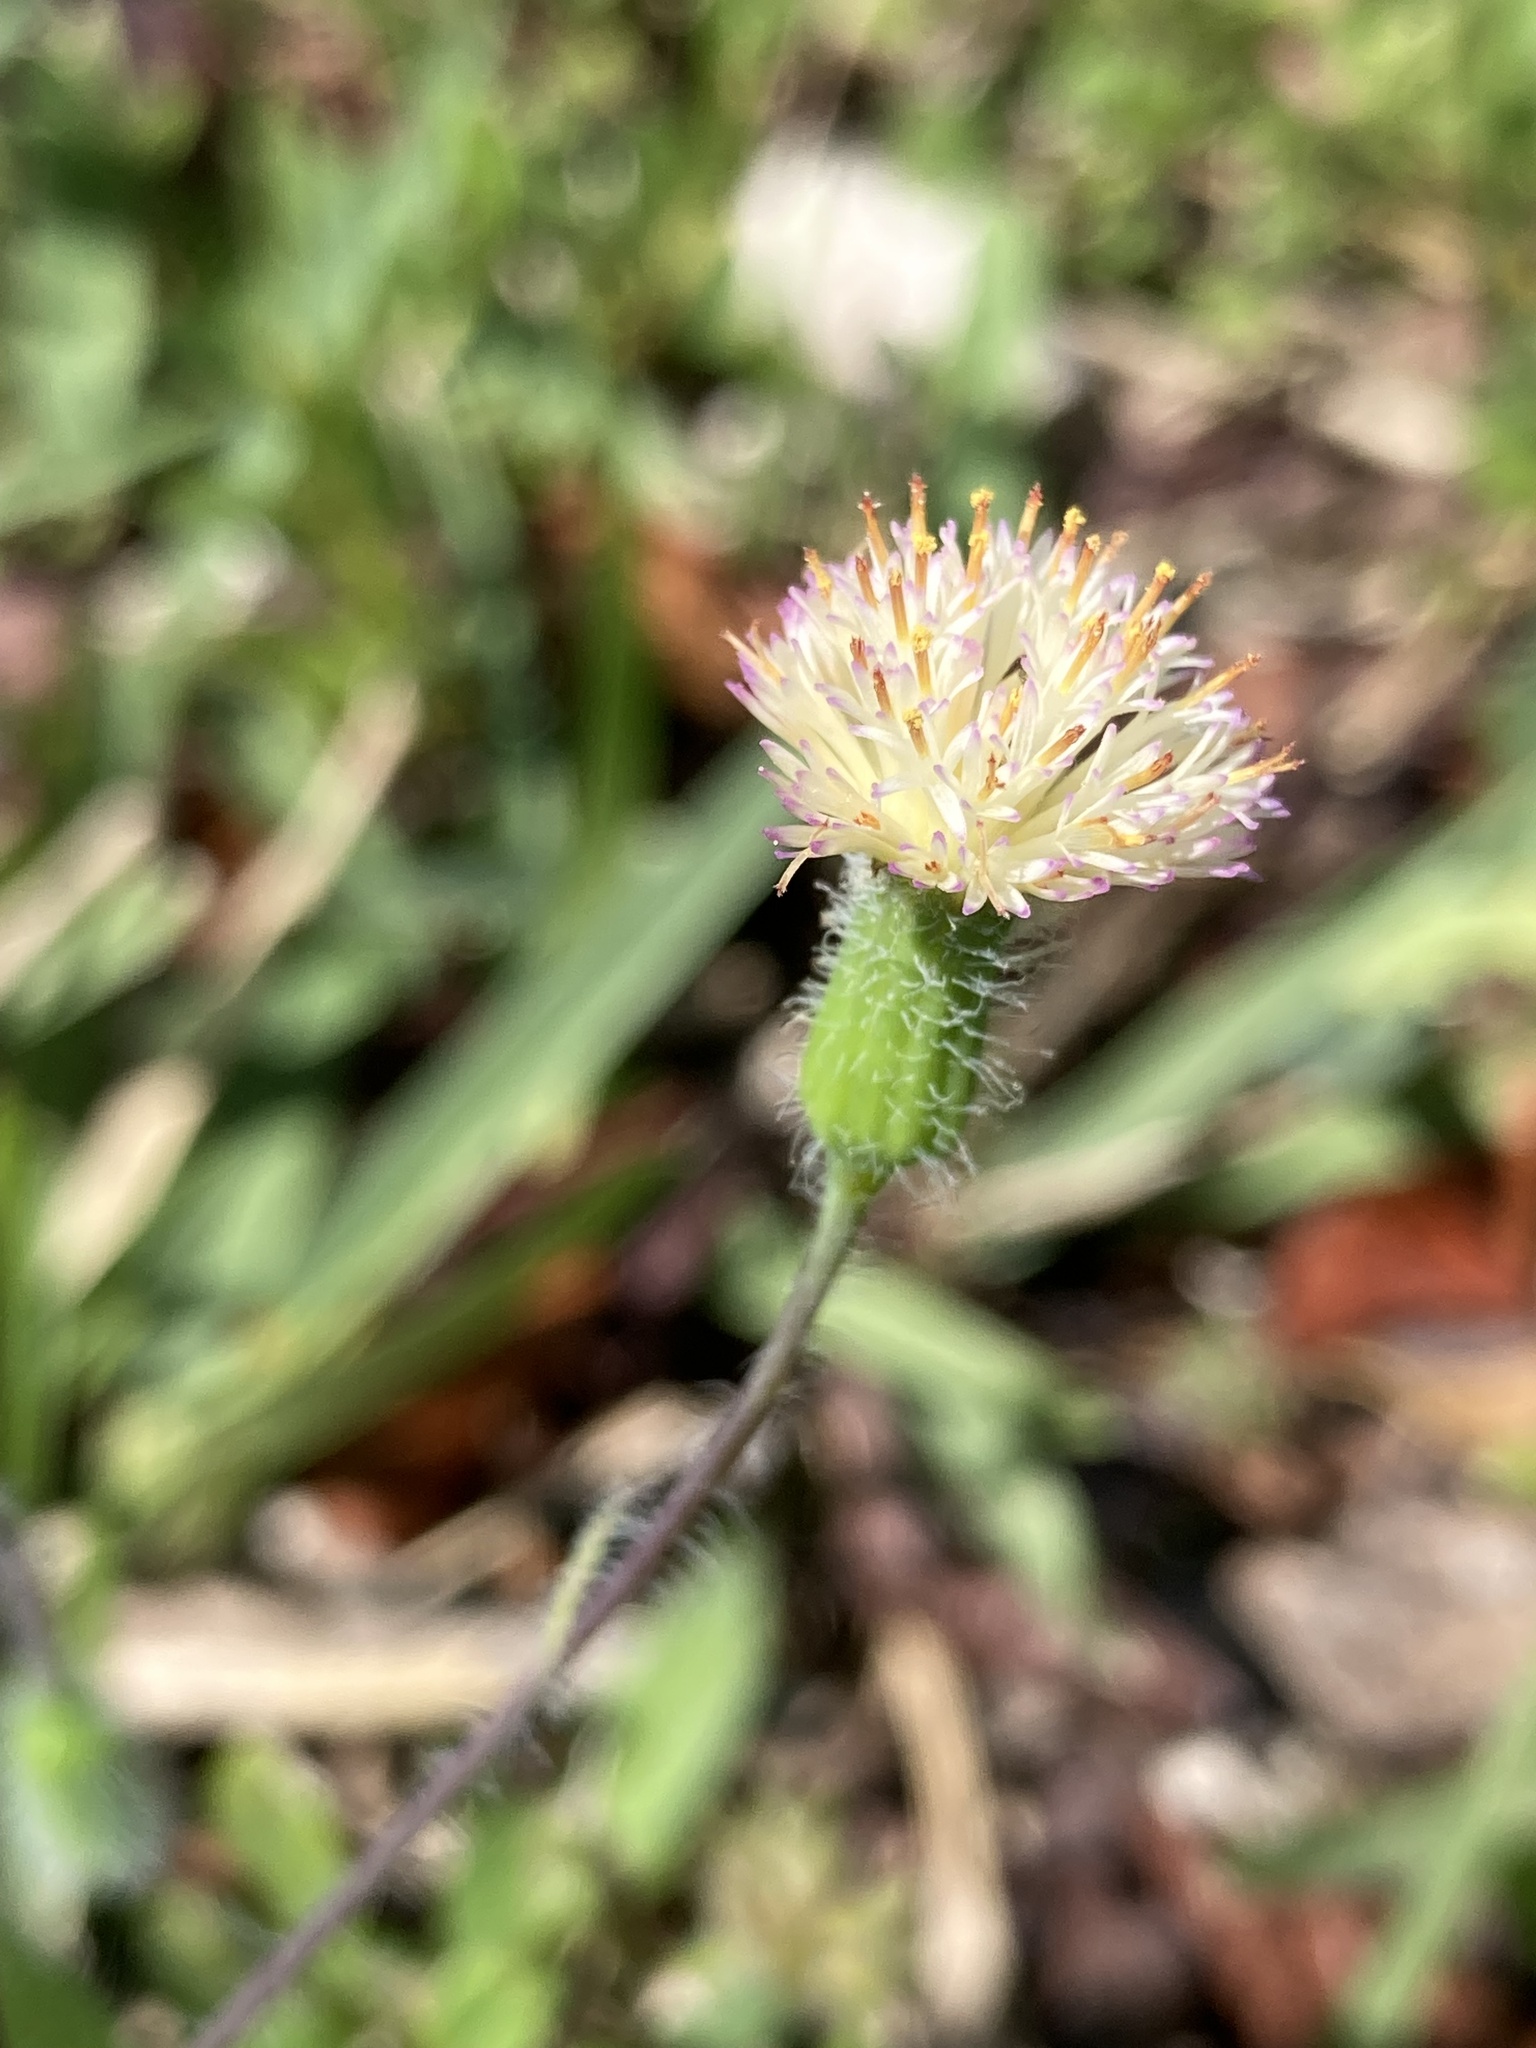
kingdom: Plantae
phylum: Tracheophyta
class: Magnoliopsida
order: Asterales
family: Asteraceae
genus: Emilia
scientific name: Emilia praetermissa
